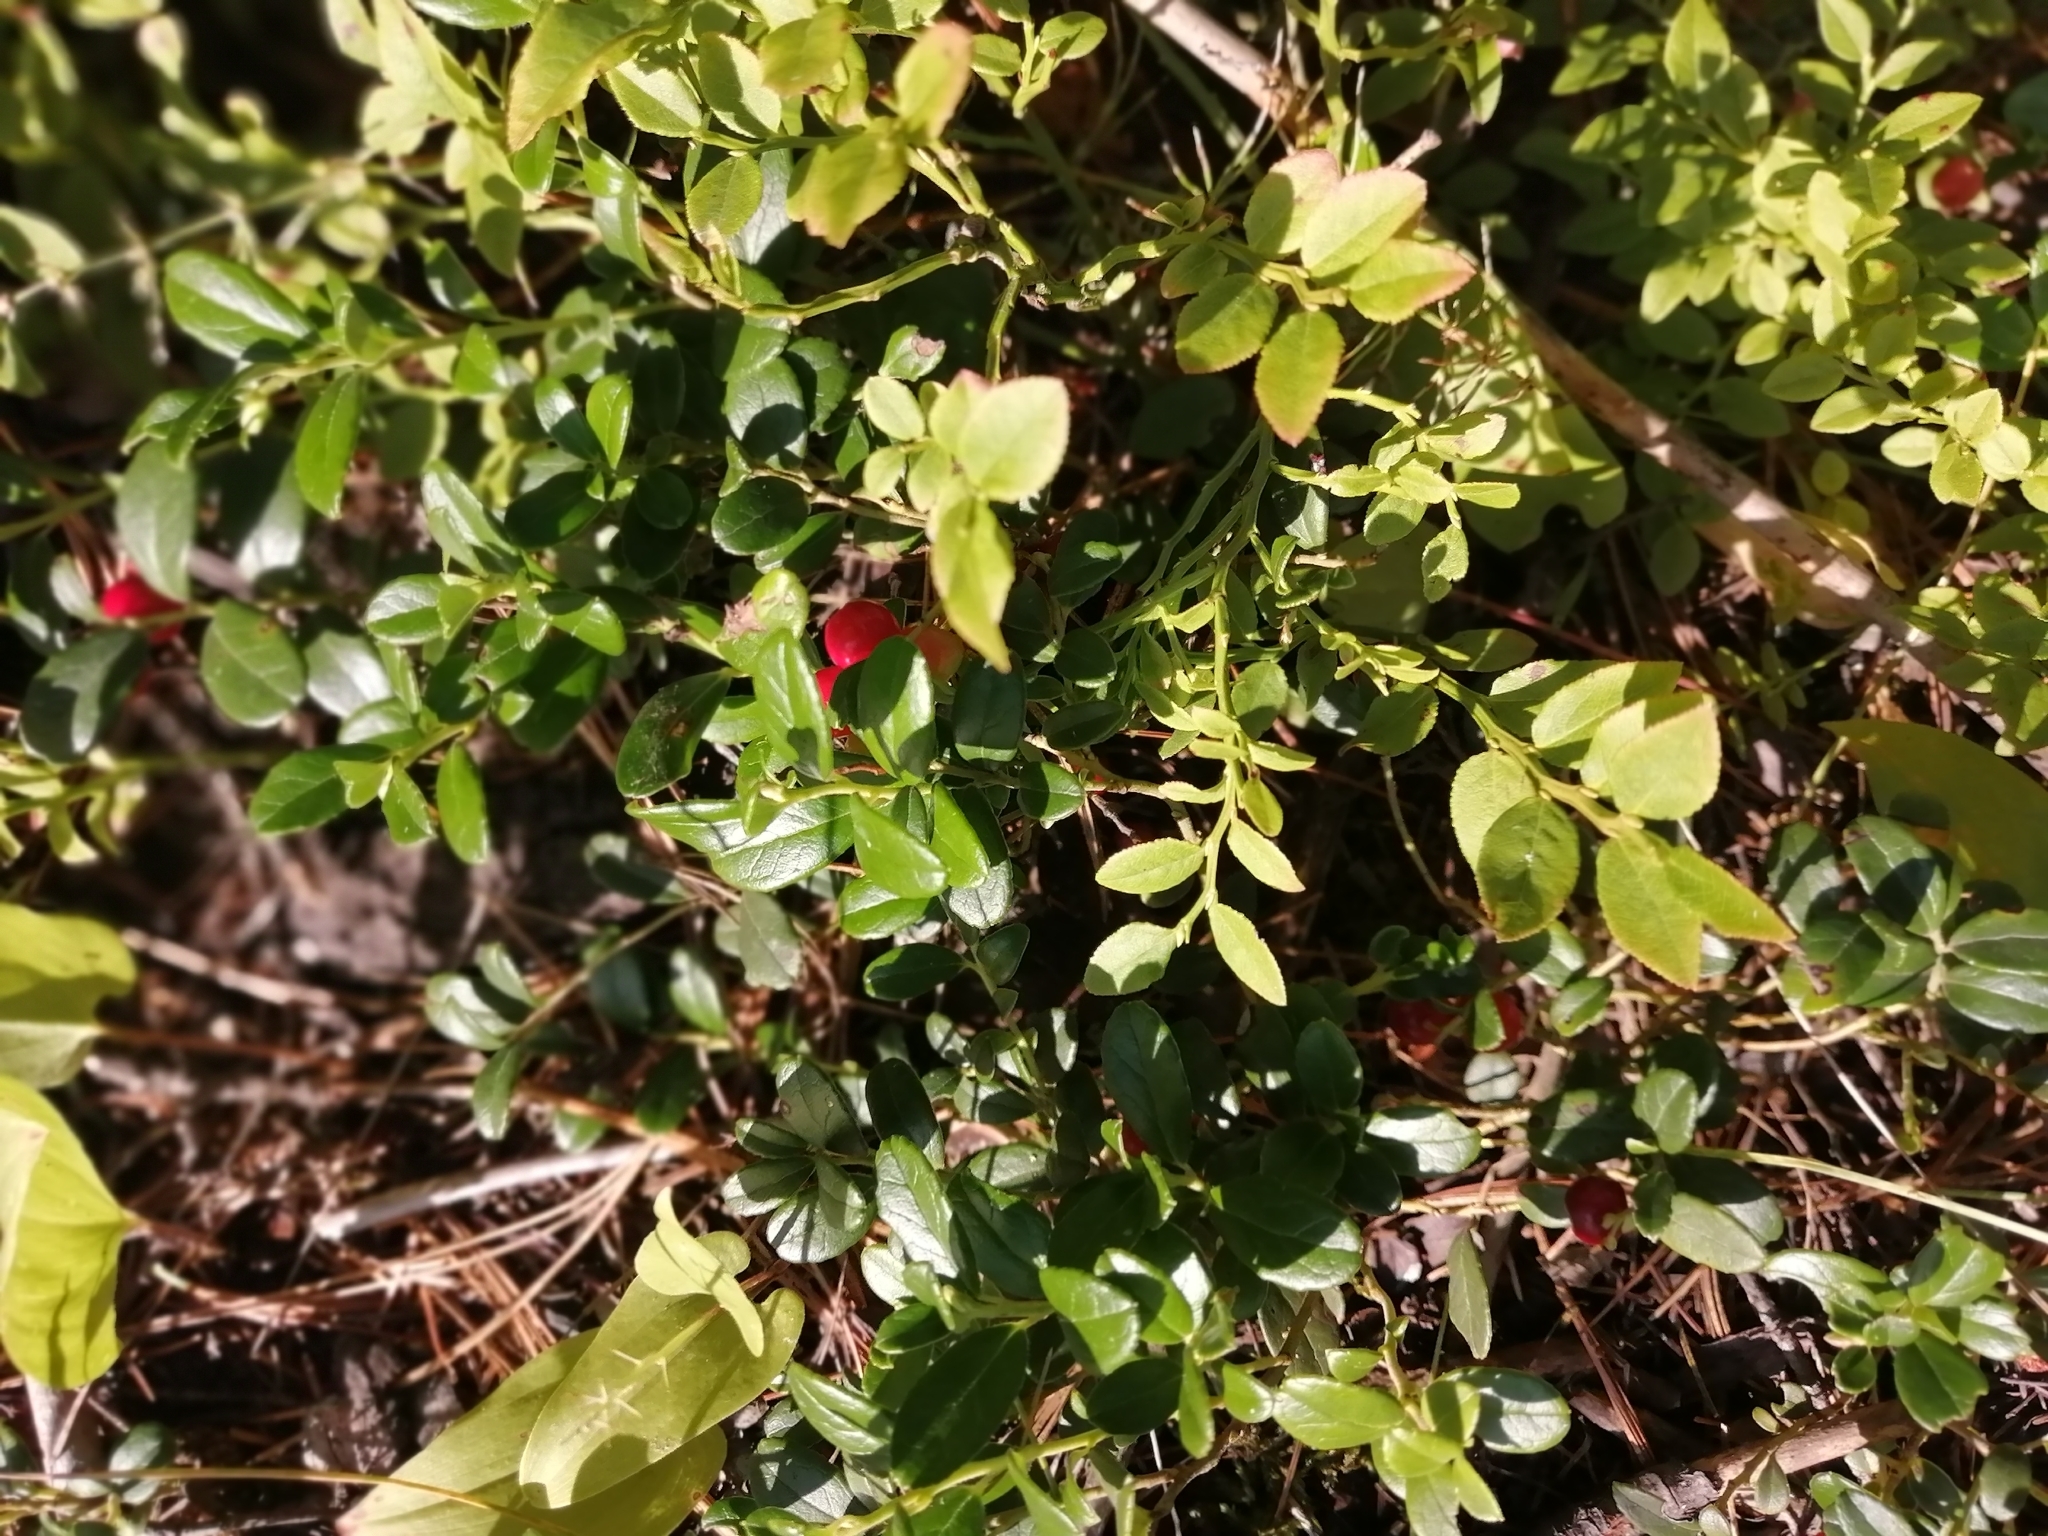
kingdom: Plantae
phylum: Tracheophyta
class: Magnoliopsida
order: Ericales
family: Ericaceae
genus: Vaccinium
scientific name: Vaccinium vitis-idaea
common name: Cowberry
